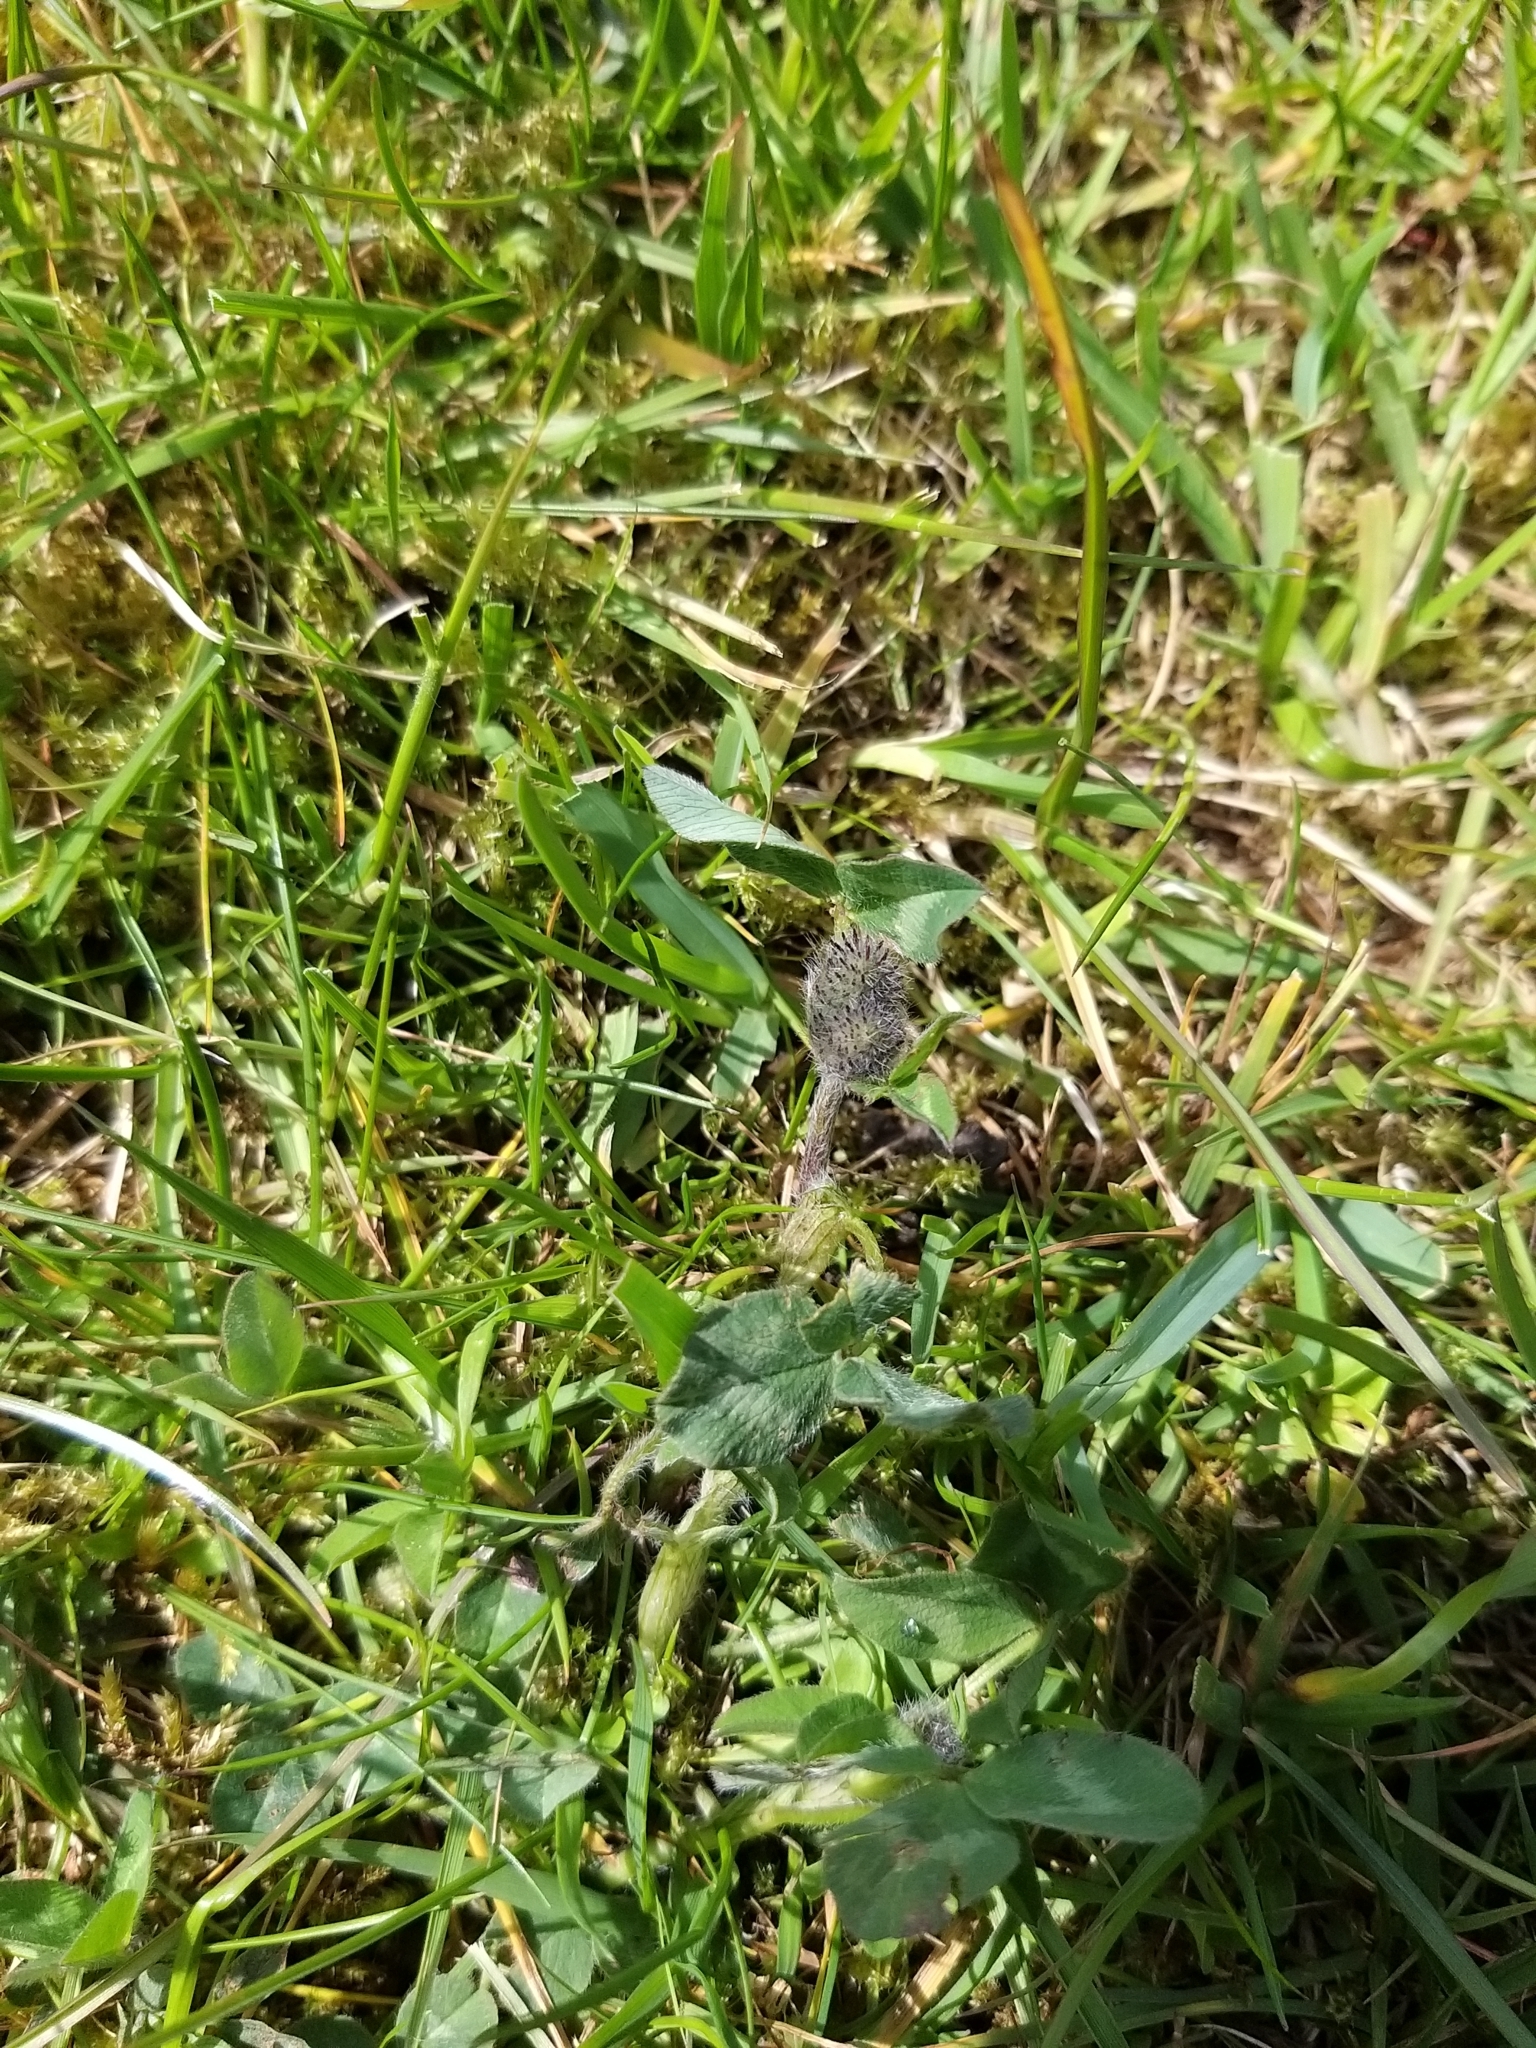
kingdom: Plantae
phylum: Tracheophyta
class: Magnoliopsida
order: Fabales
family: Fabaceae
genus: Trifolium
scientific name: Trifolium pratense
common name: Red clover
